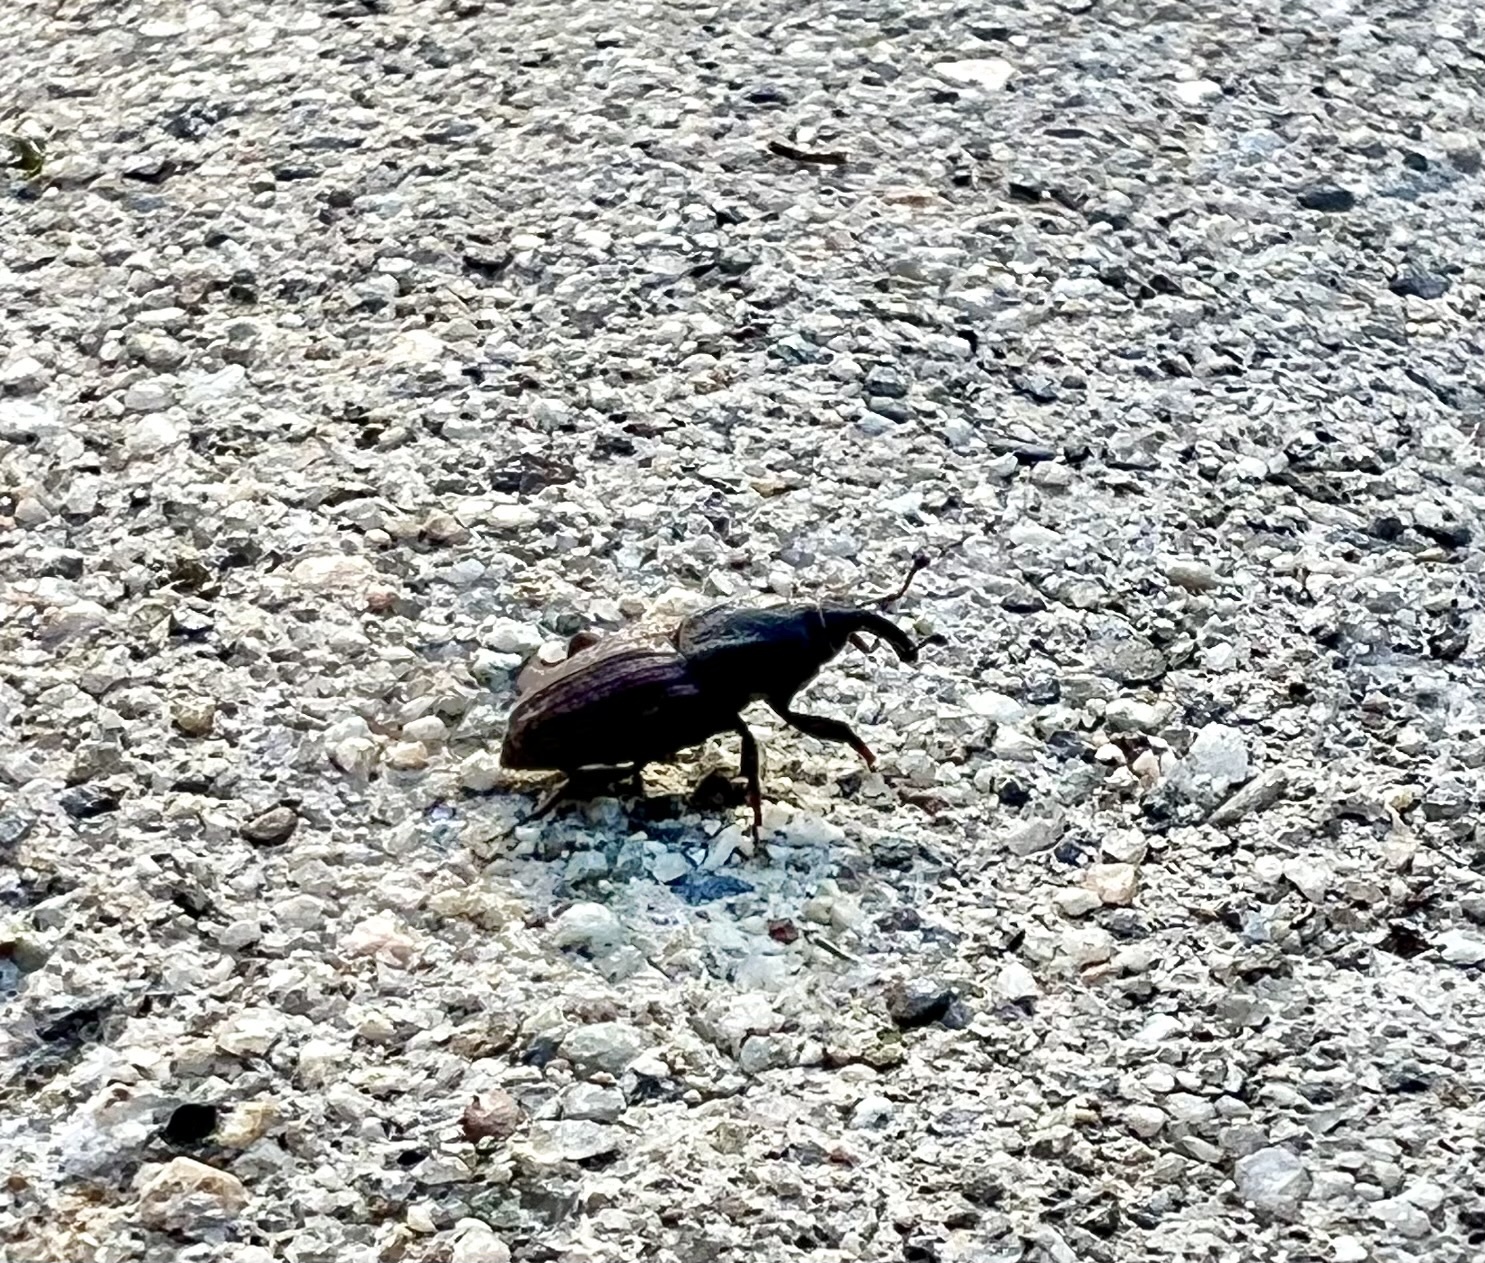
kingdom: Animalia
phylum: Arthropoda
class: Insecta
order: Coleoptera
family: Dryophthoridae
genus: Sphenophorus
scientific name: Sphenophorus venatus
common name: Hunting billbug
